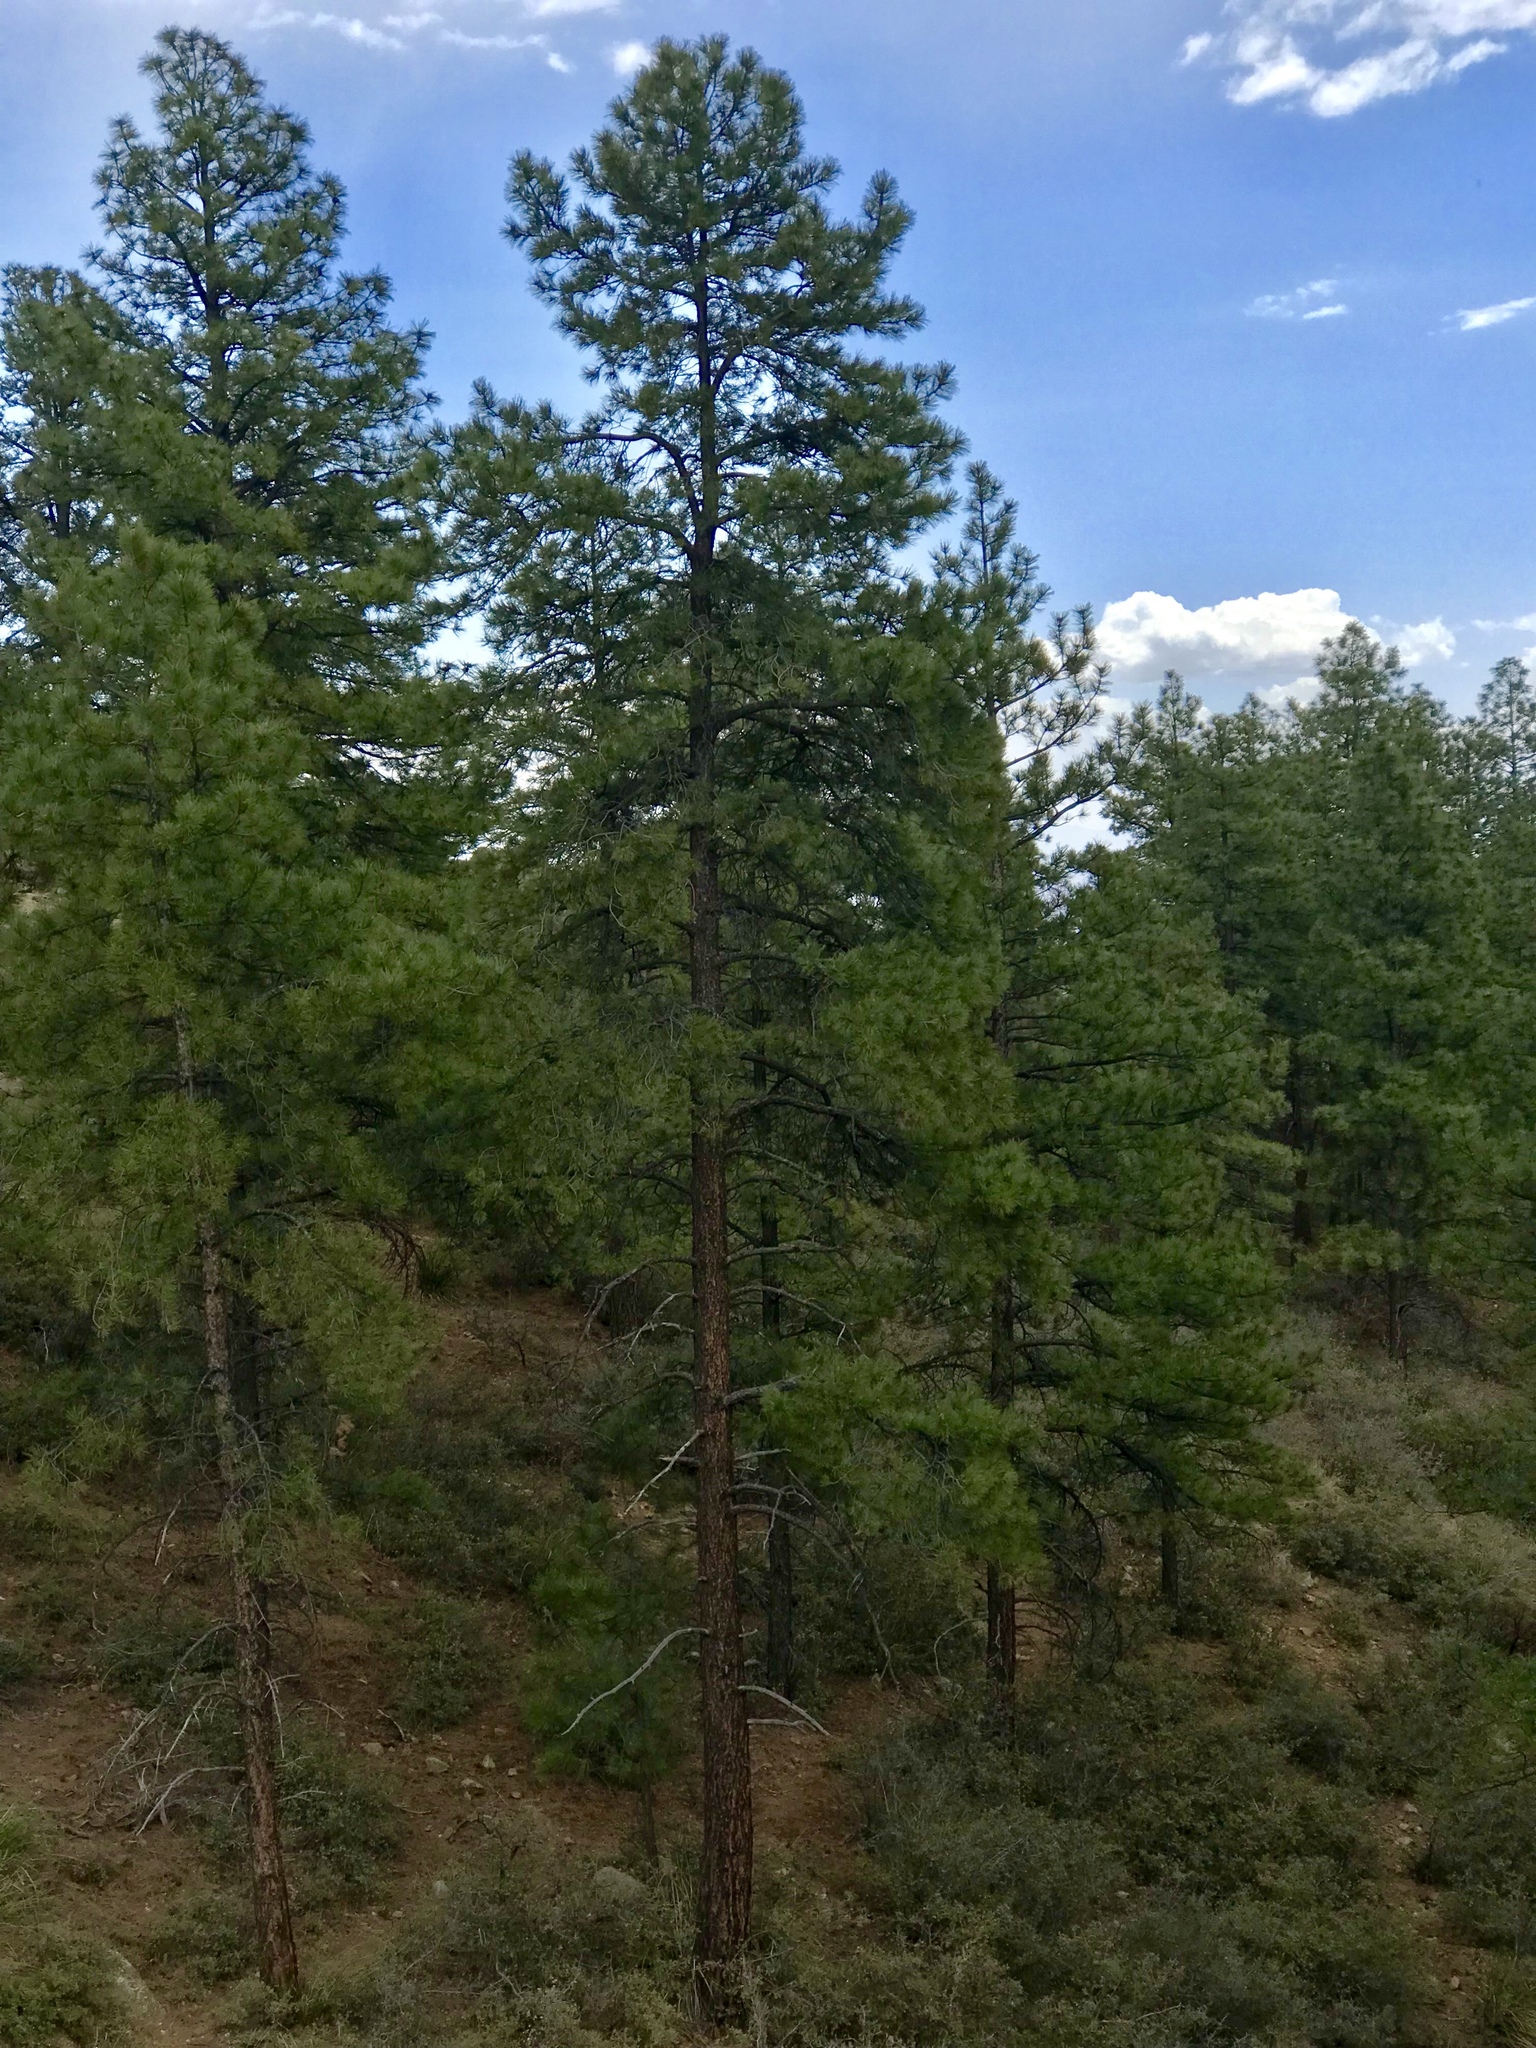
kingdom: Plantae
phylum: Tracheophyta
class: Pinopsida
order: Pinales
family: Pinaceae
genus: Pinus
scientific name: Pinus ponderosa
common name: Western yellow-pine
